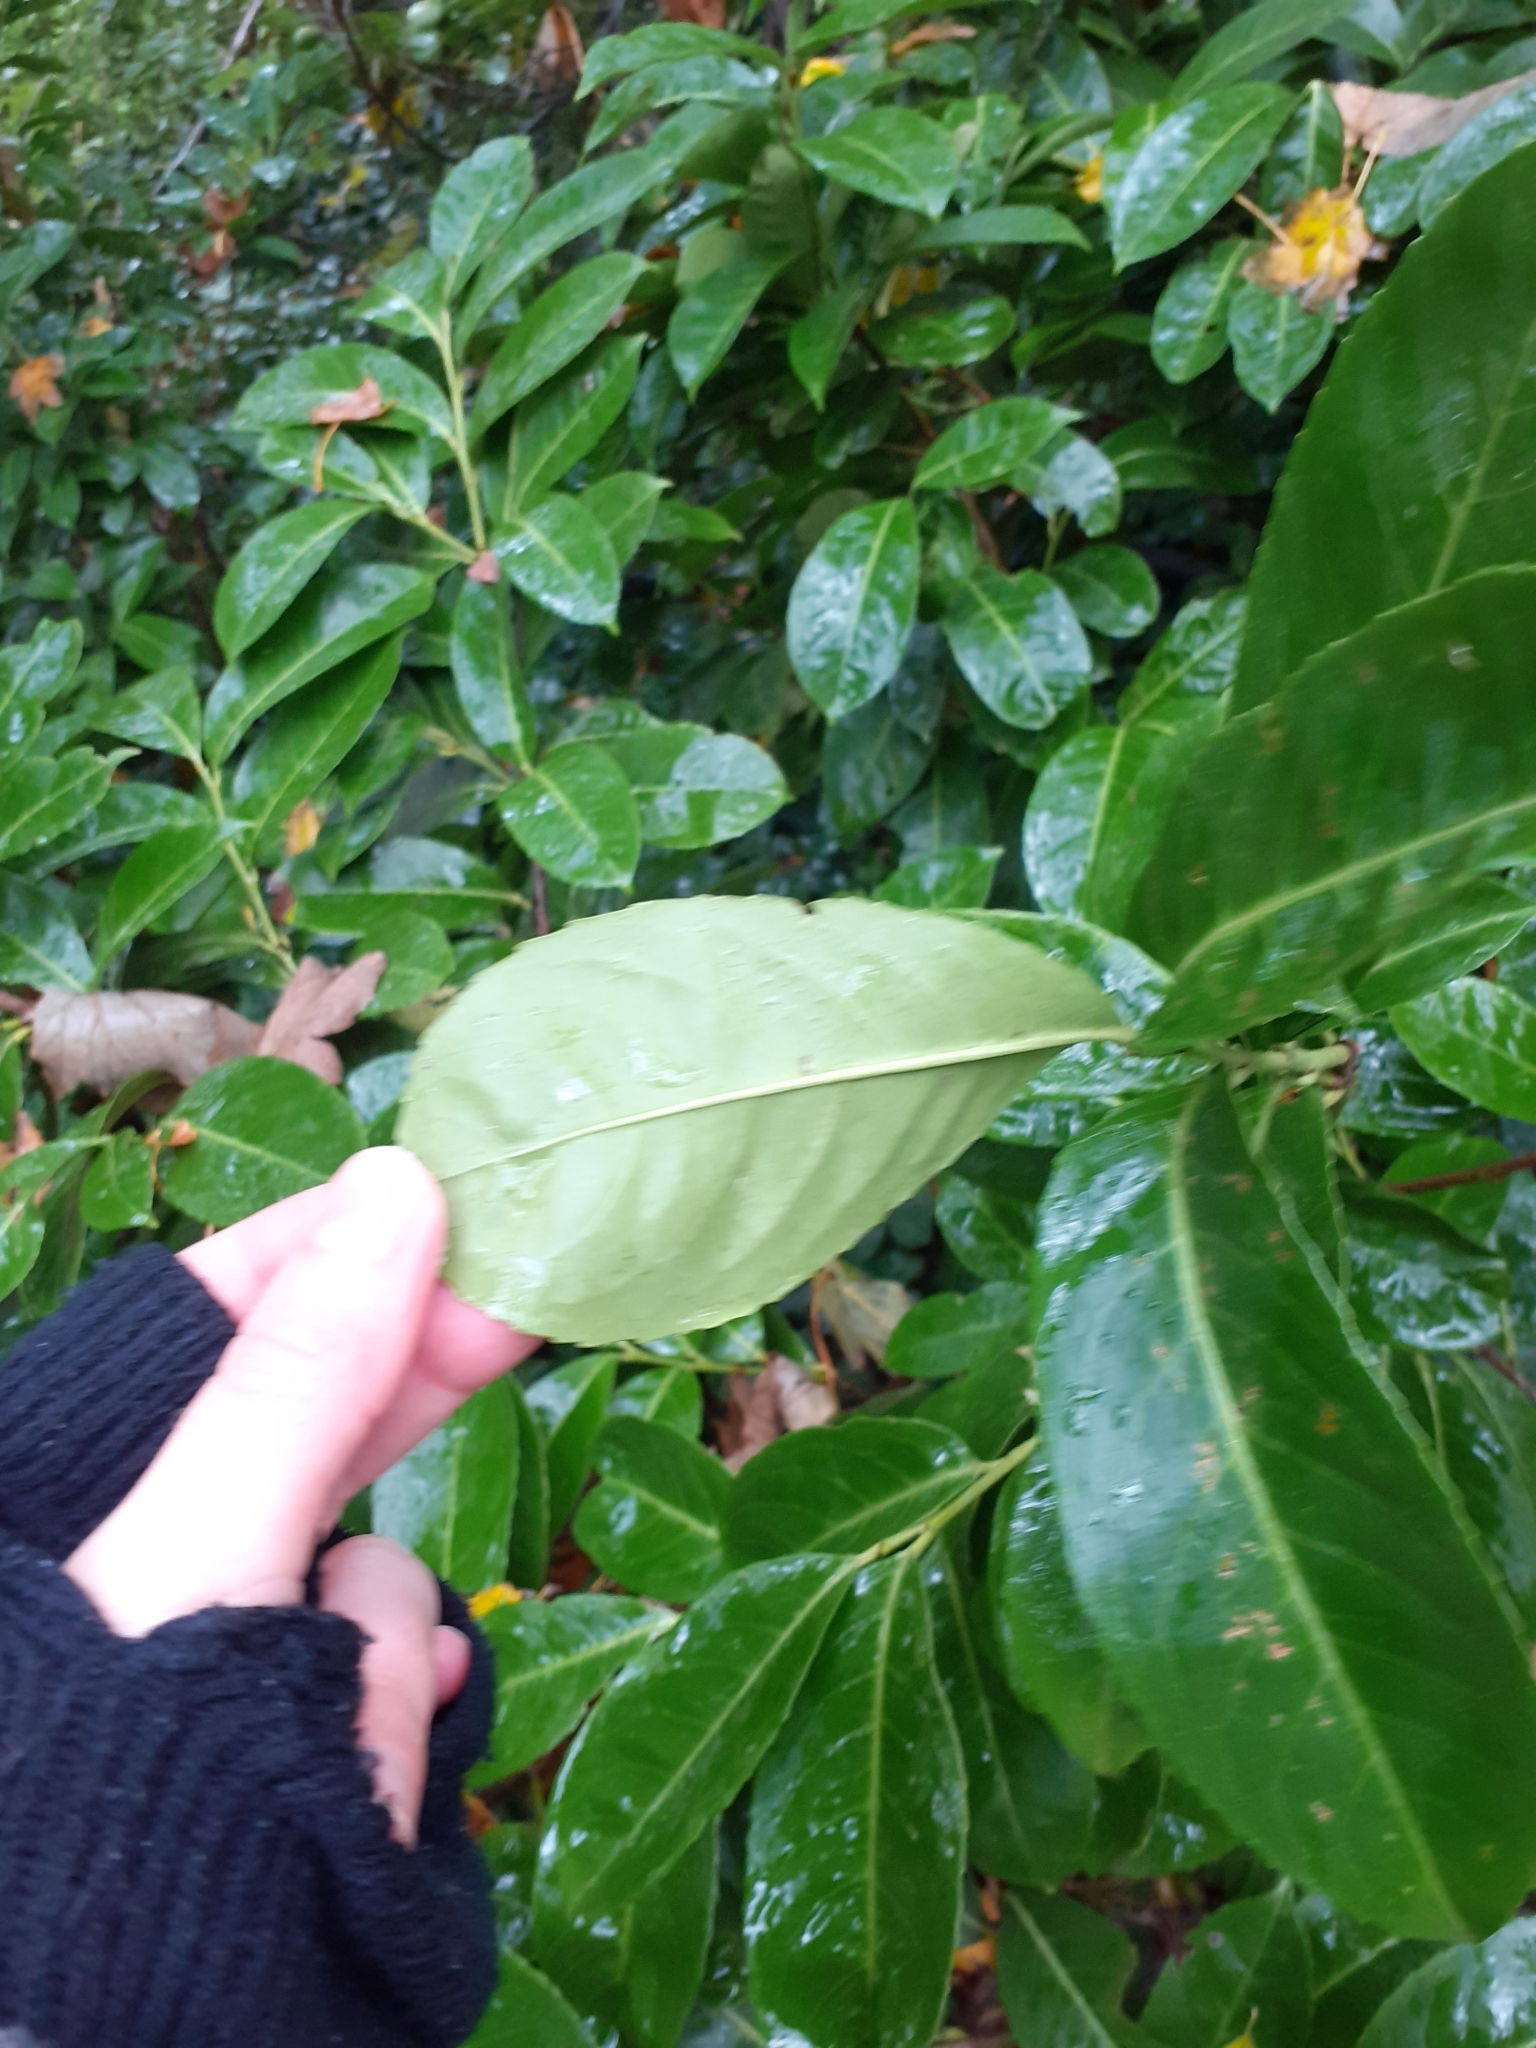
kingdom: Plantae
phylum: Tracheophyta
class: Magnoliopsida
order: Rosales
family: Rosaceae
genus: Prunus
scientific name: Prunus laurocerasus
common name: Cherry laurel
